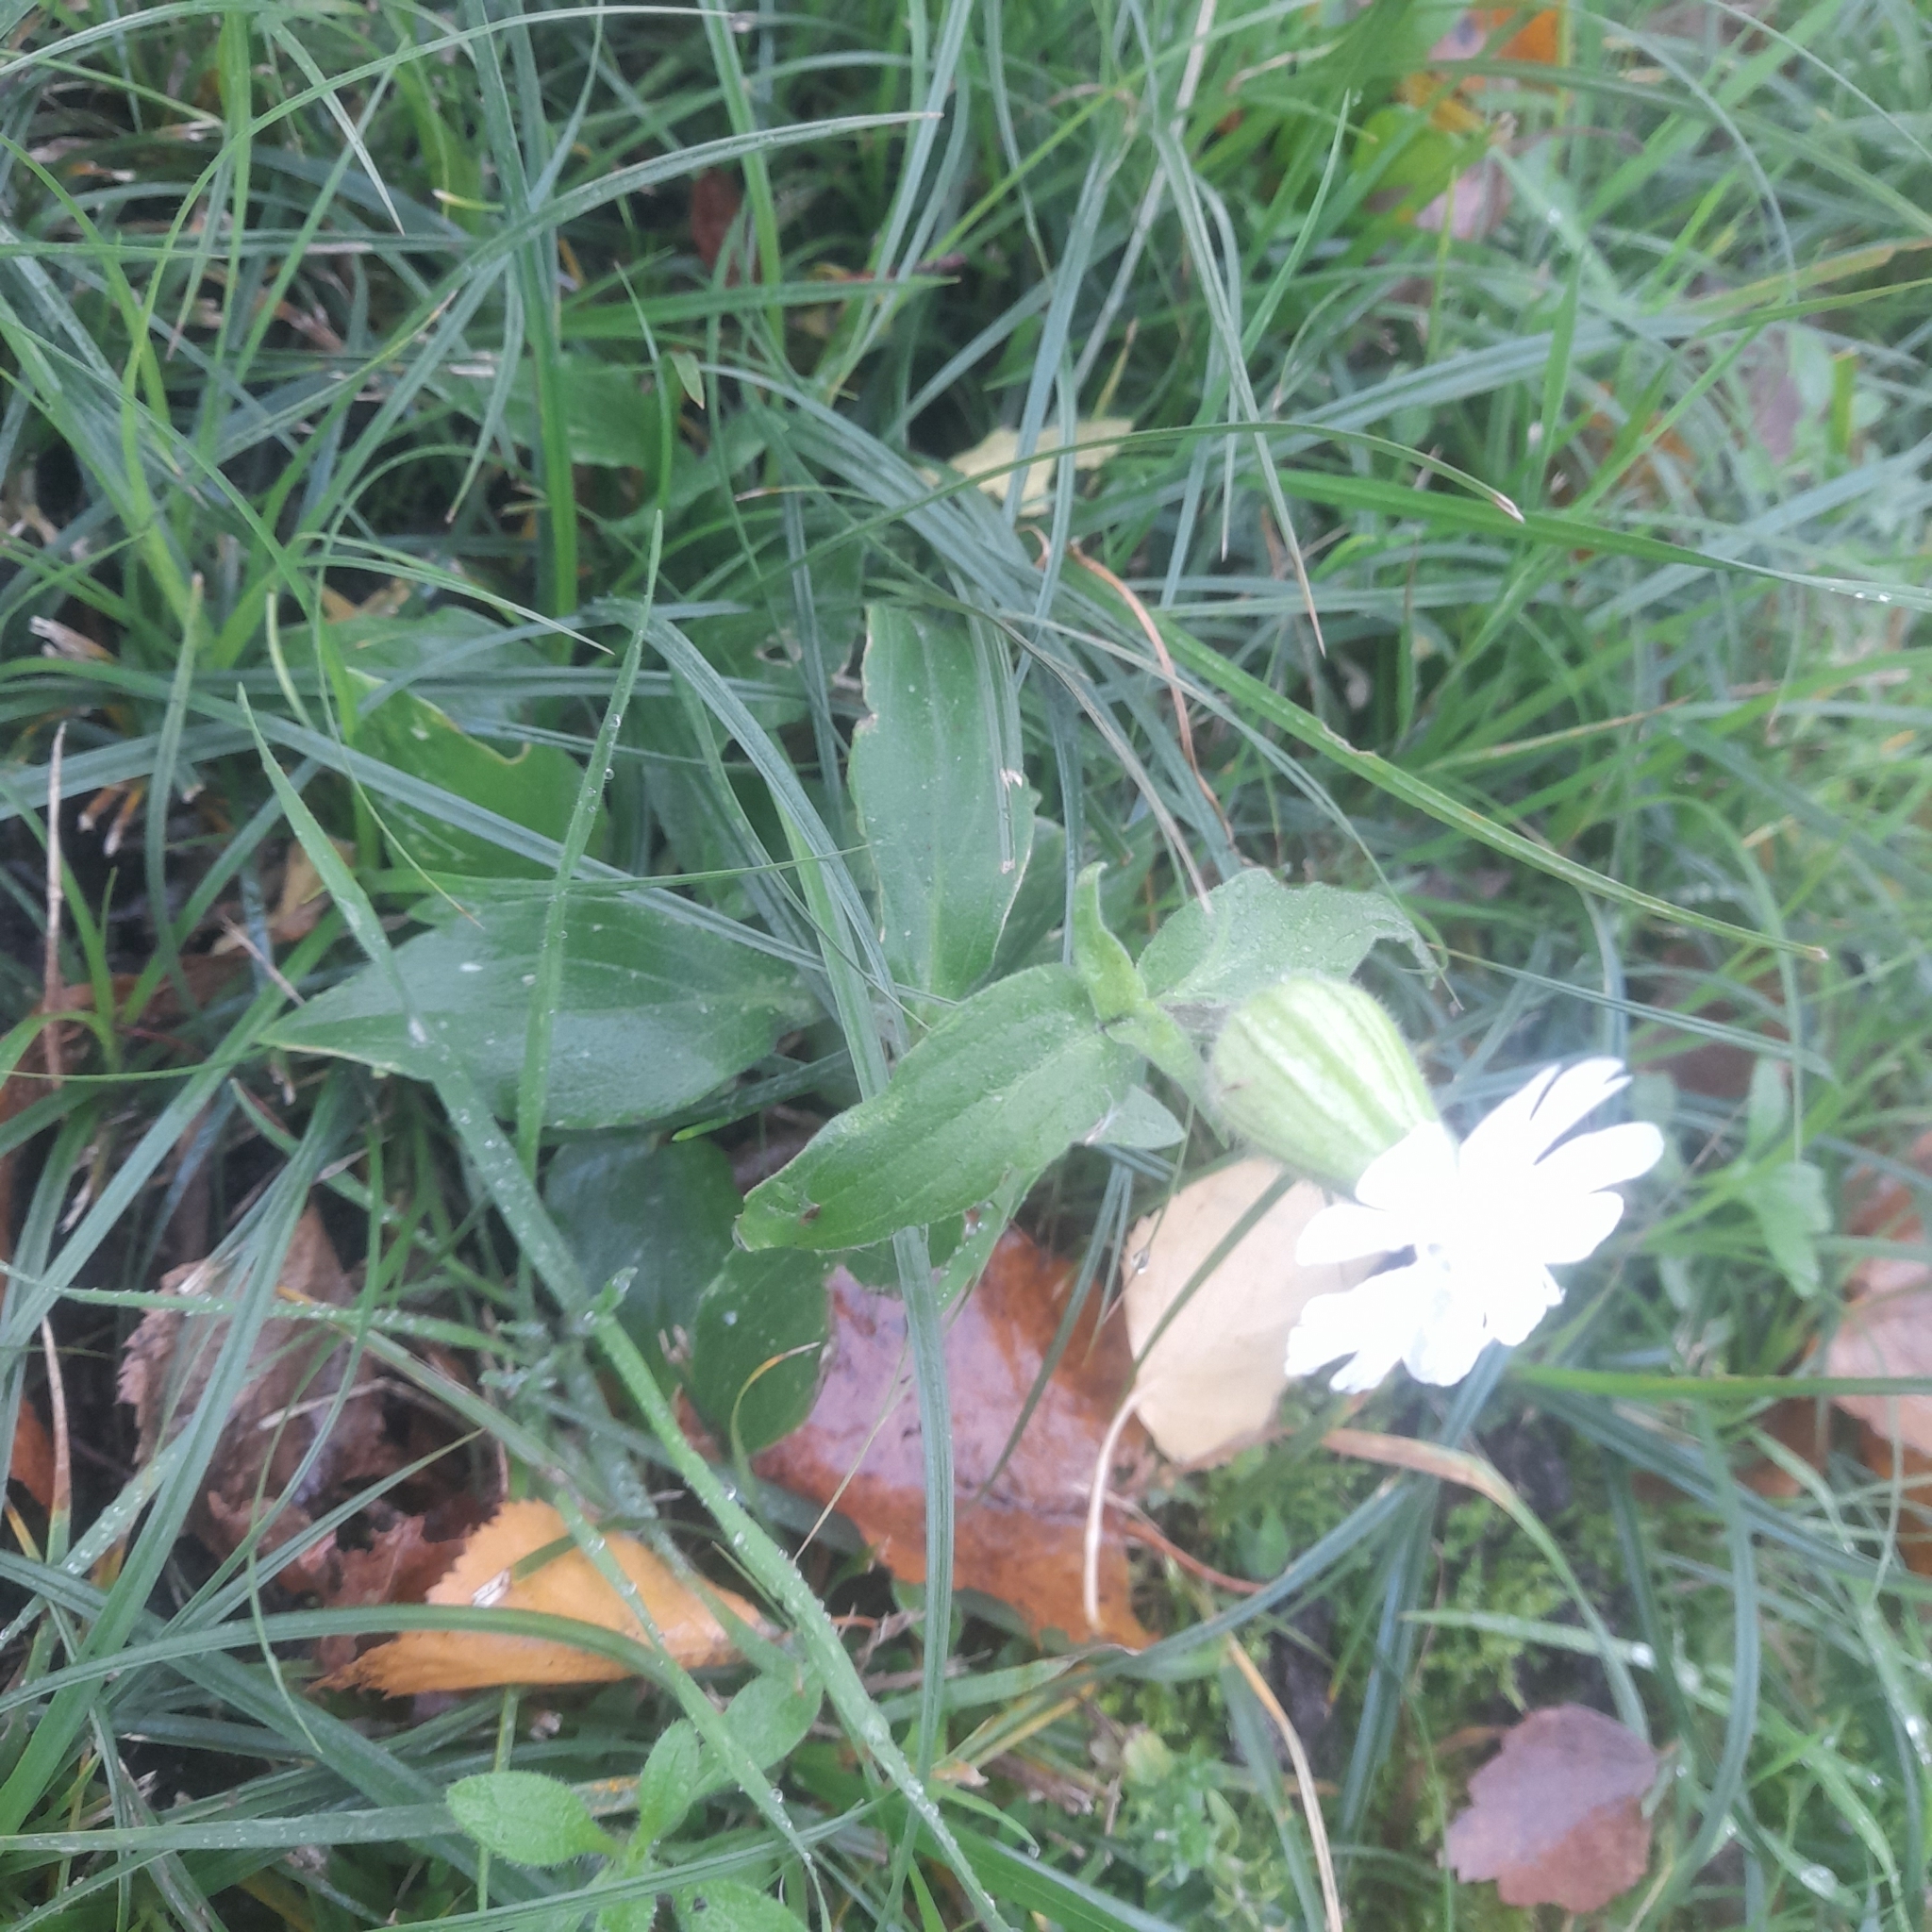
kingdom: Plantae
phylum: Tracheophyta
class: Magnoliopsida
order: Caryophyllales
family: Caryophyllaceae
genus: Silene
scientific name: Silene latifolia
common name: White campion
